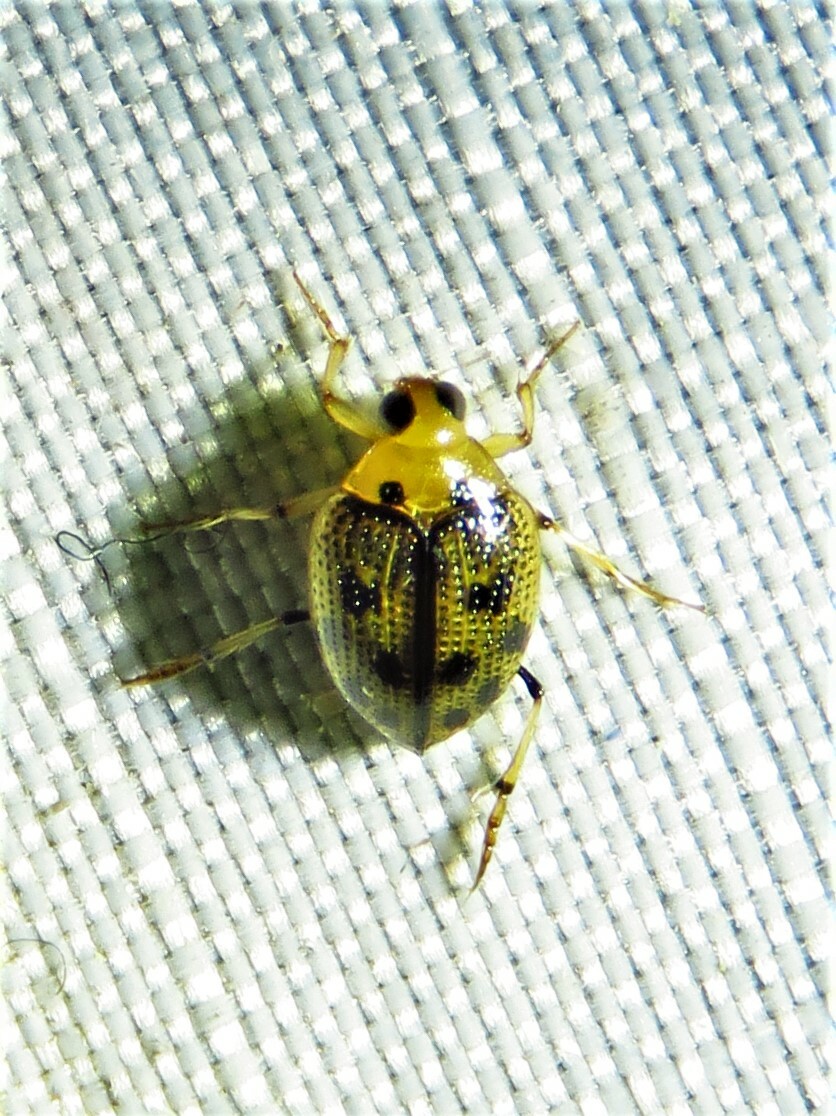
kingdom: Animalia
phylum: Arthropoda
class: Insecta
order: Coleoptera
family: Haliplidae
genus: Peltodytes
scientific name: Peltodytes
